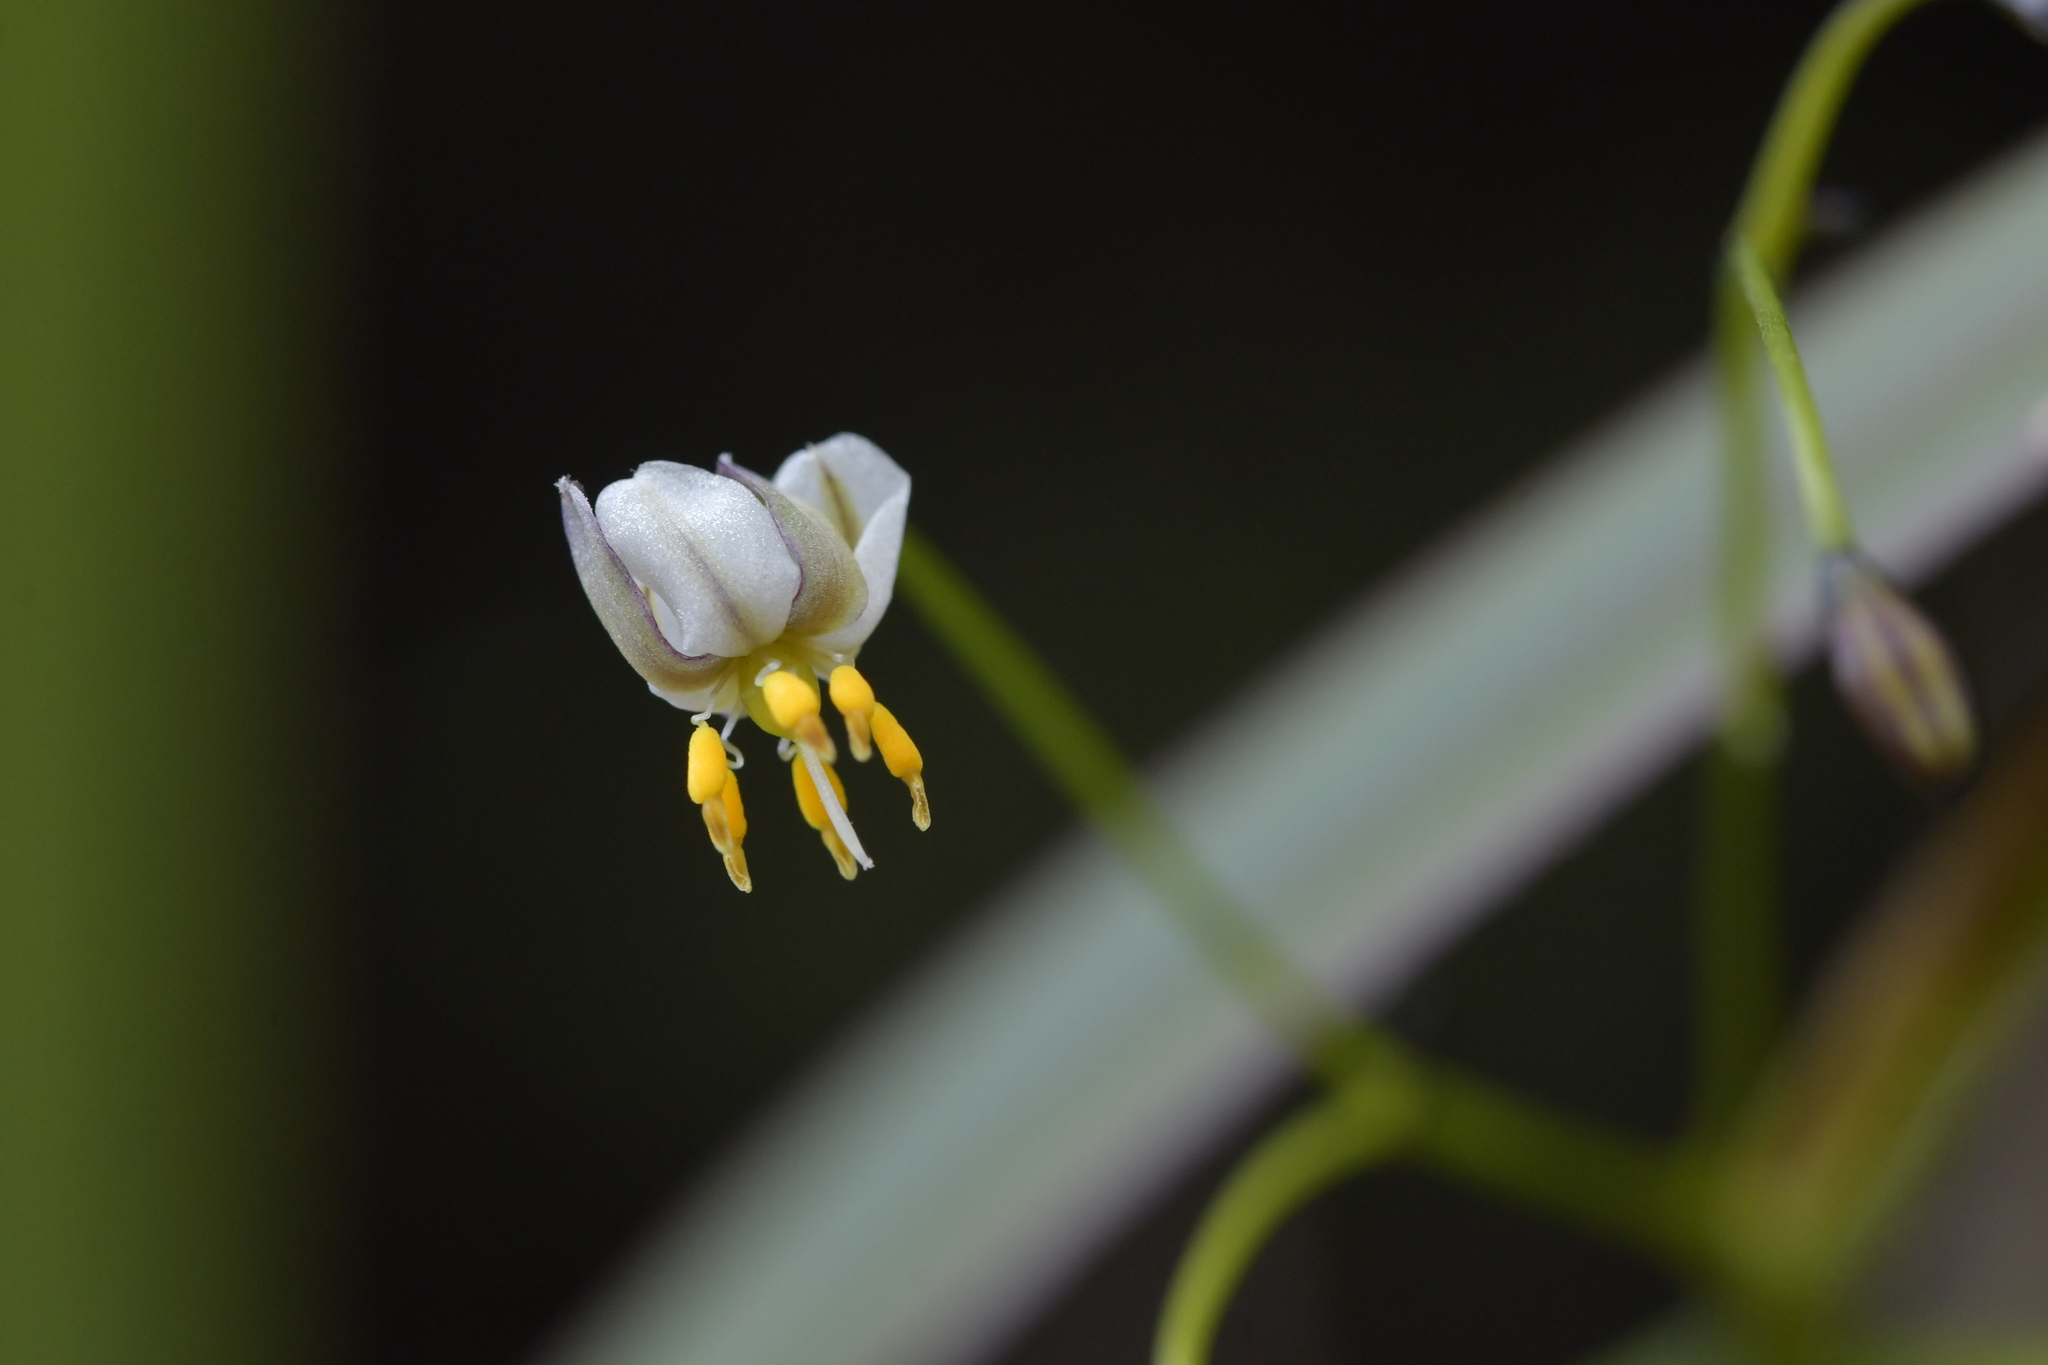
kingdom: Plantae
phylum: Tracheophyta
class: Liliopsida
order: Asparagales
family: Asphodelaceae
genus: Dianella
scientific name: Dianella nigra
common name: New zealand-blueberry
